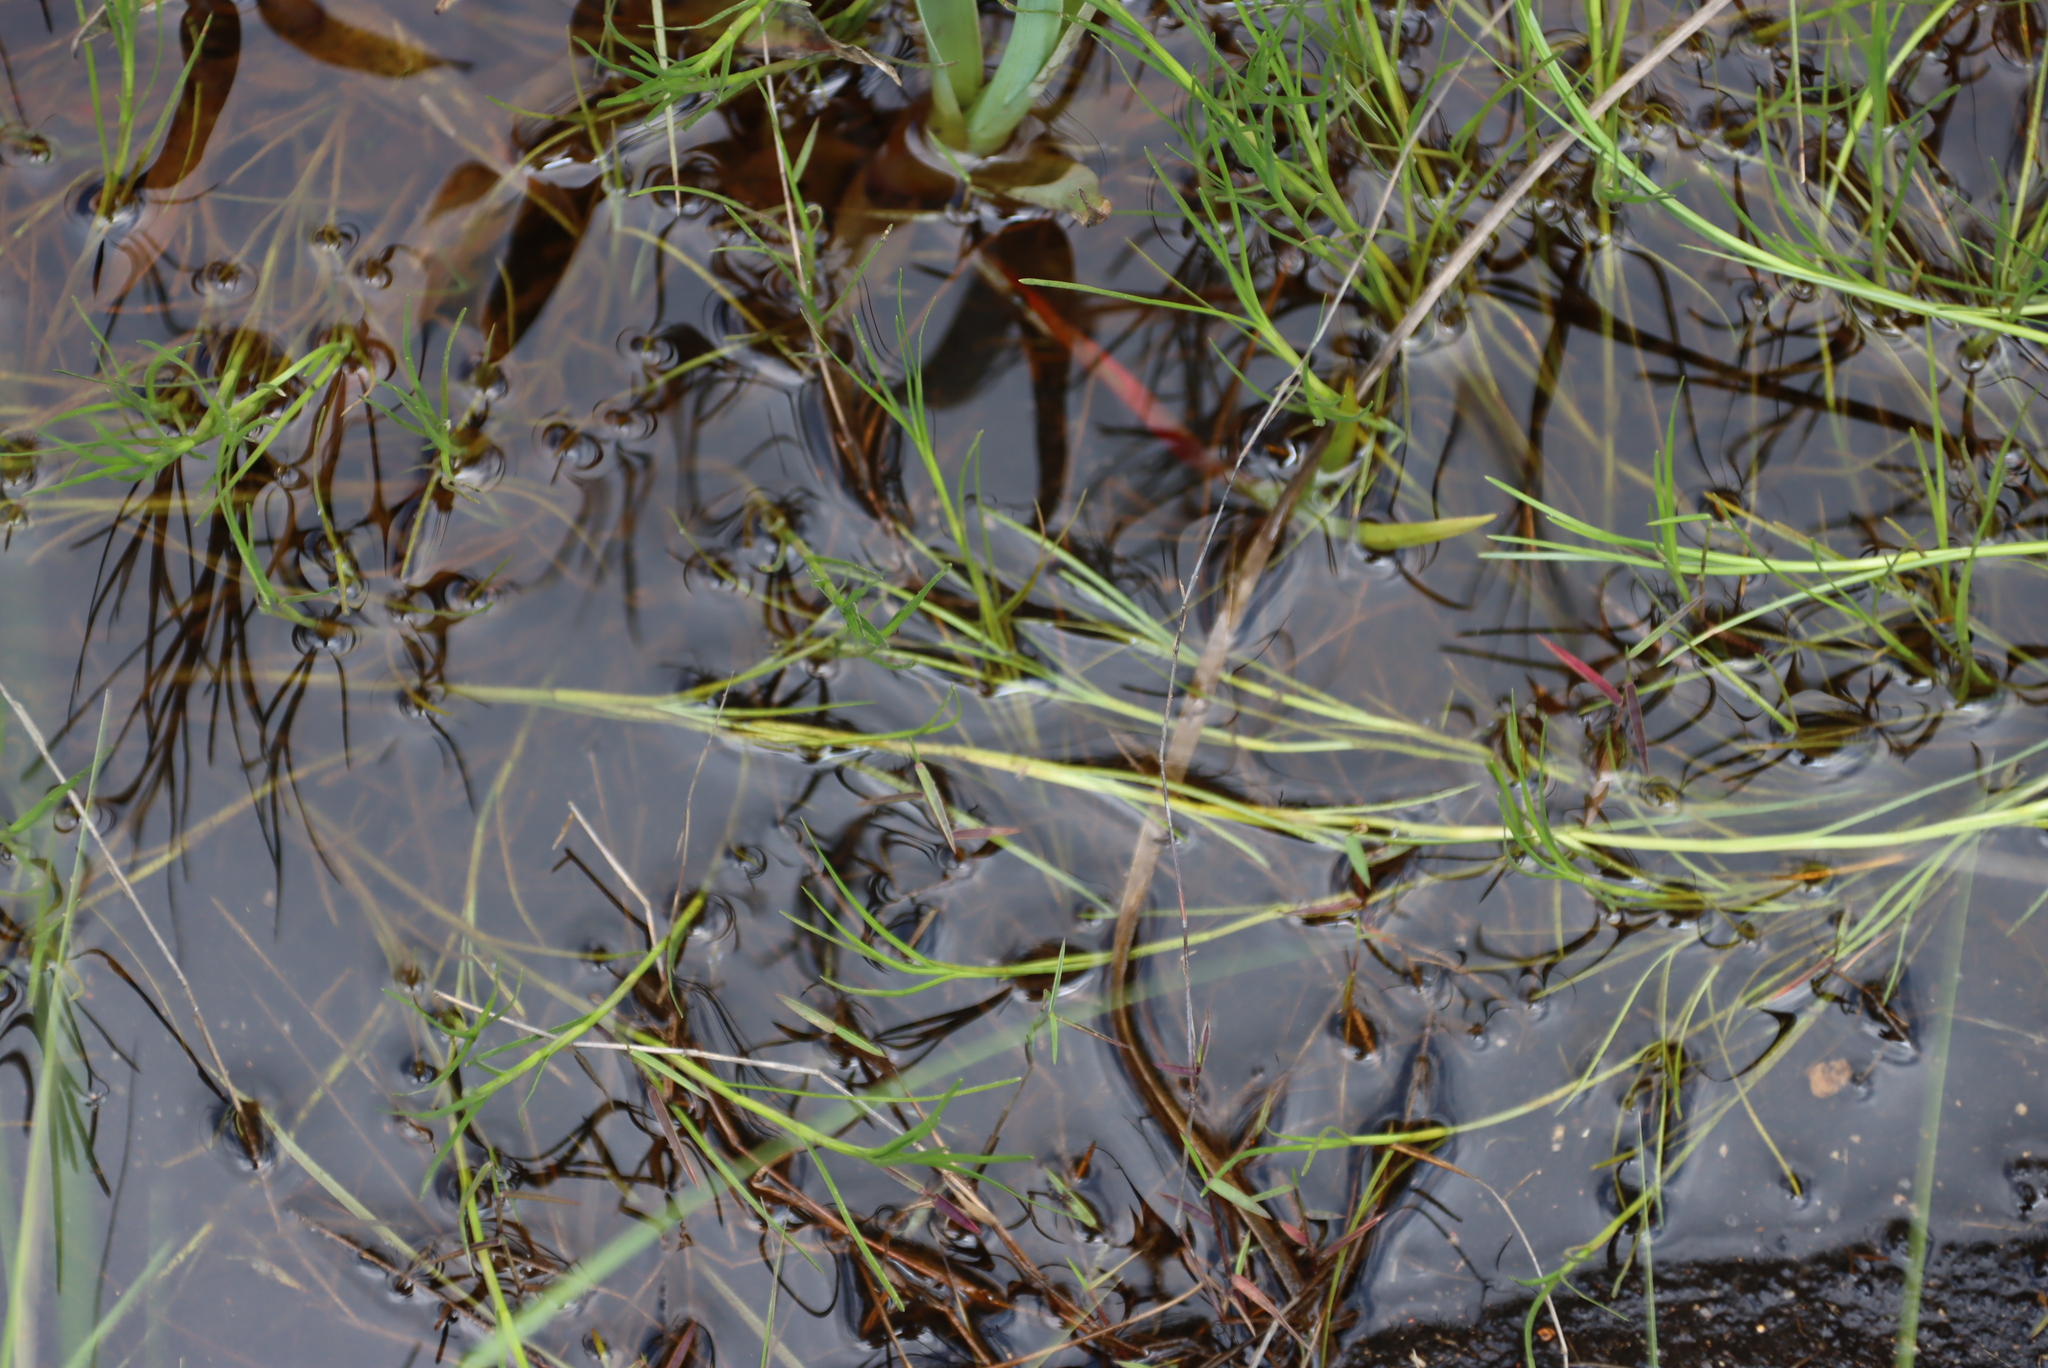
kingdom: Plantae
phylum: Tracheophyta
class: Liliopsida
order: Poales
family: Cyperaceae
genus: Isolepis
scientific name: Isolepis fluitans
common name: Floating club-rush
